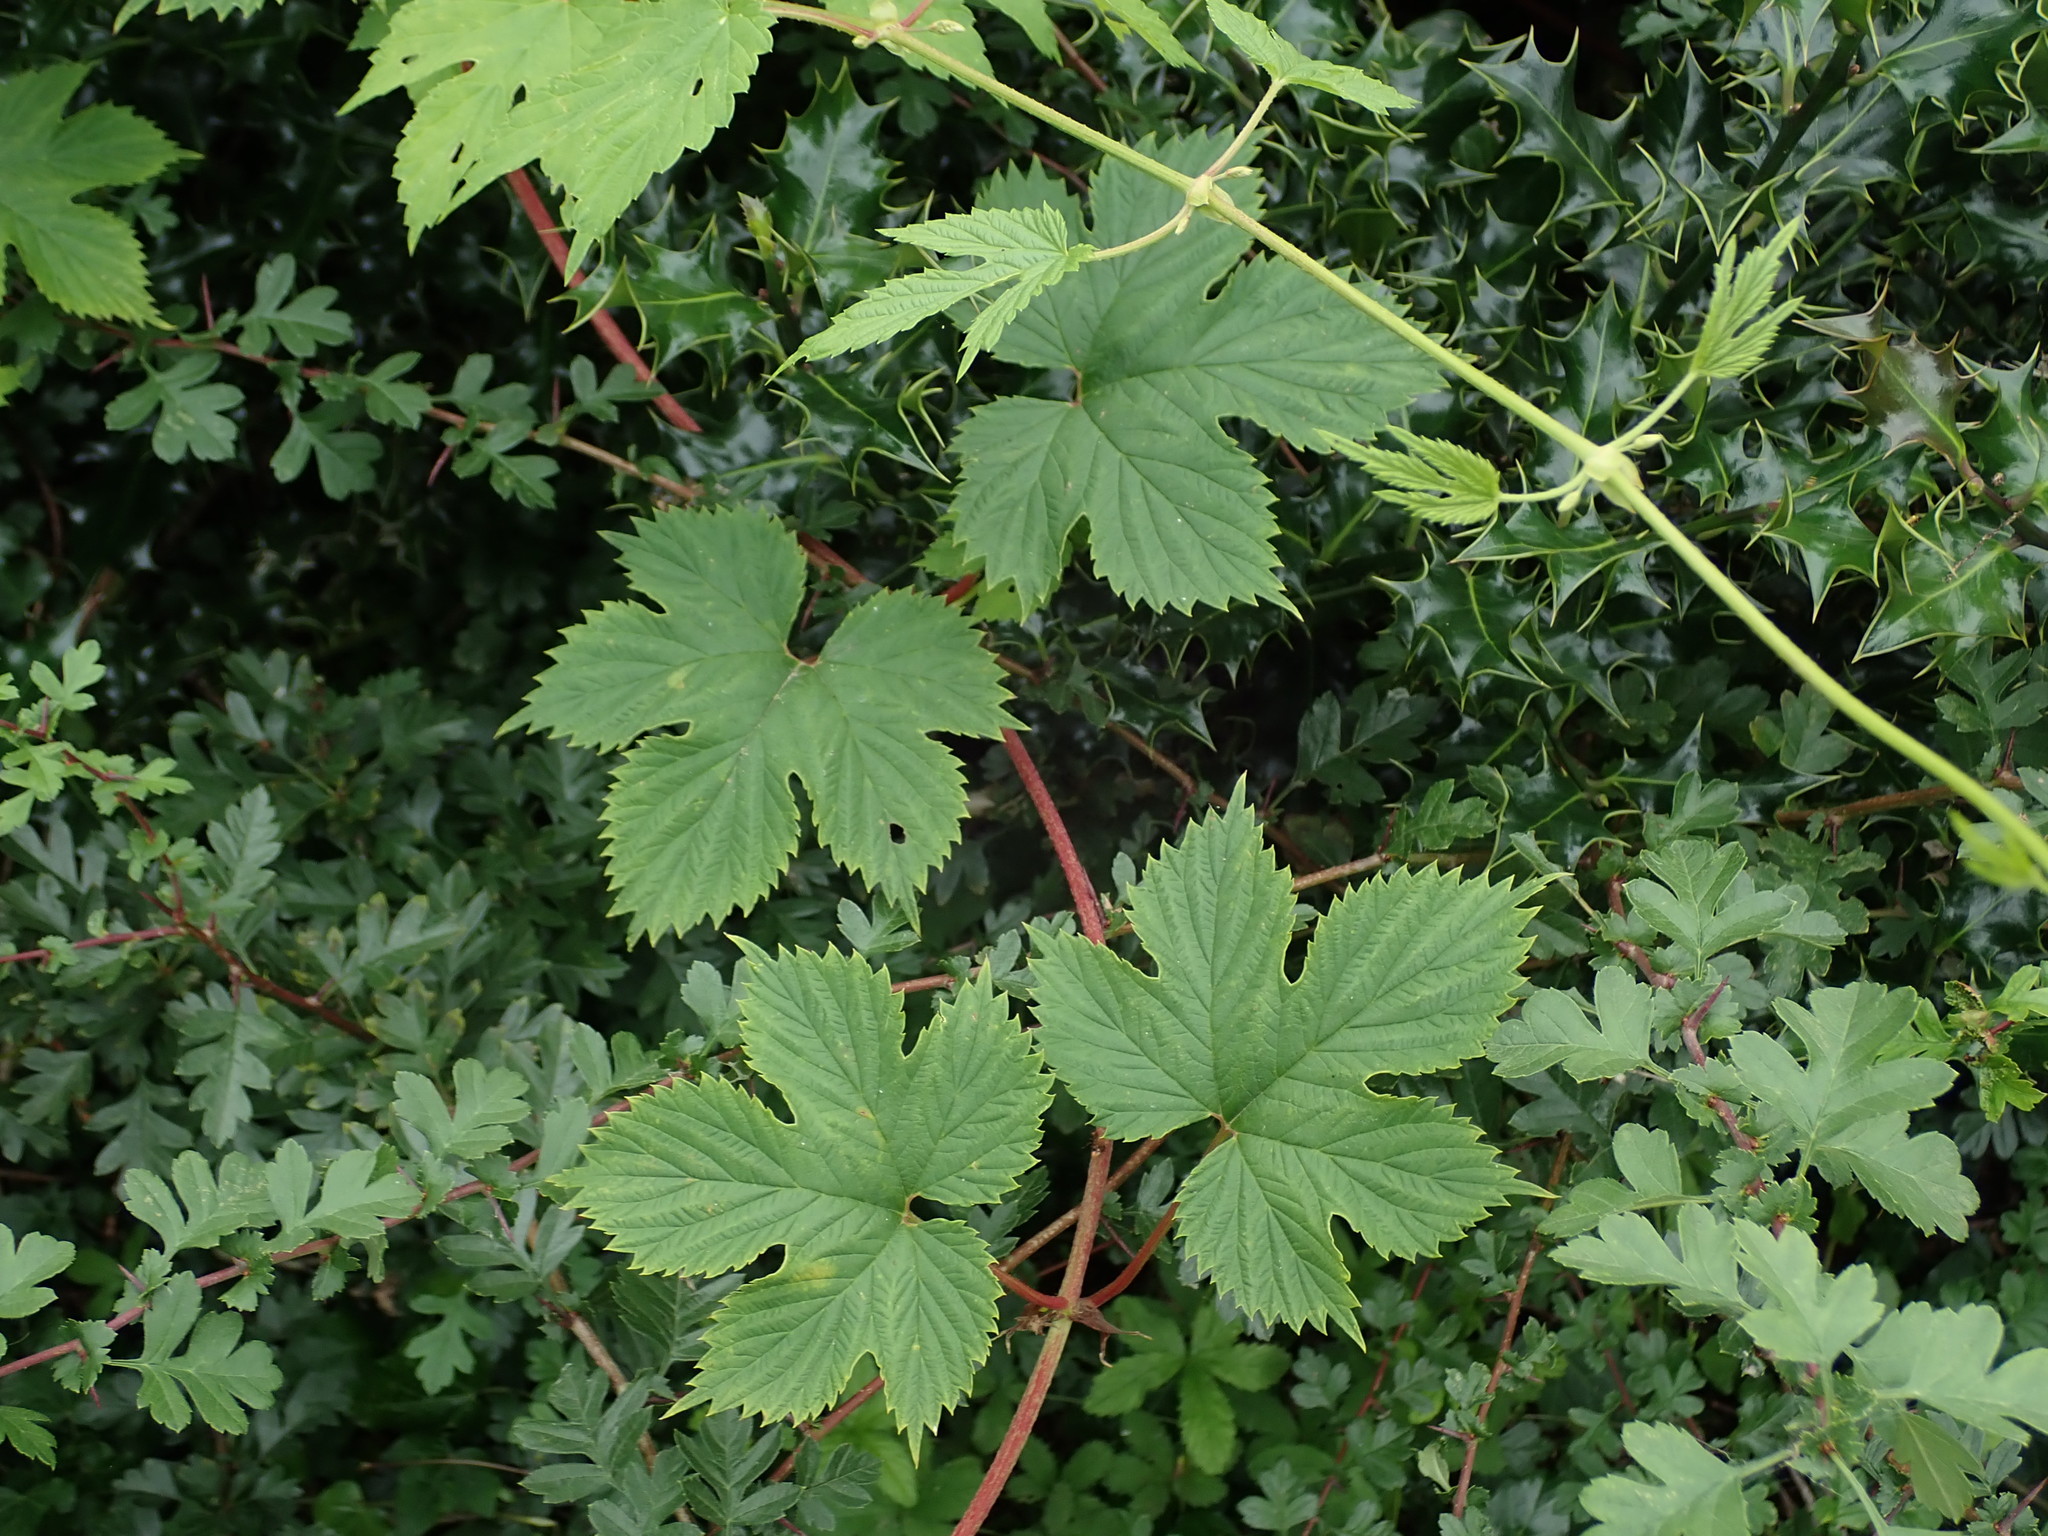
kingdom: Plantae
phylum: Tracheophyta
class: Magnoliopsida
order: Rosales
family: Cannabaceae
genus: Humulus
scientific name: Humulus lupulus
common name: Hop
